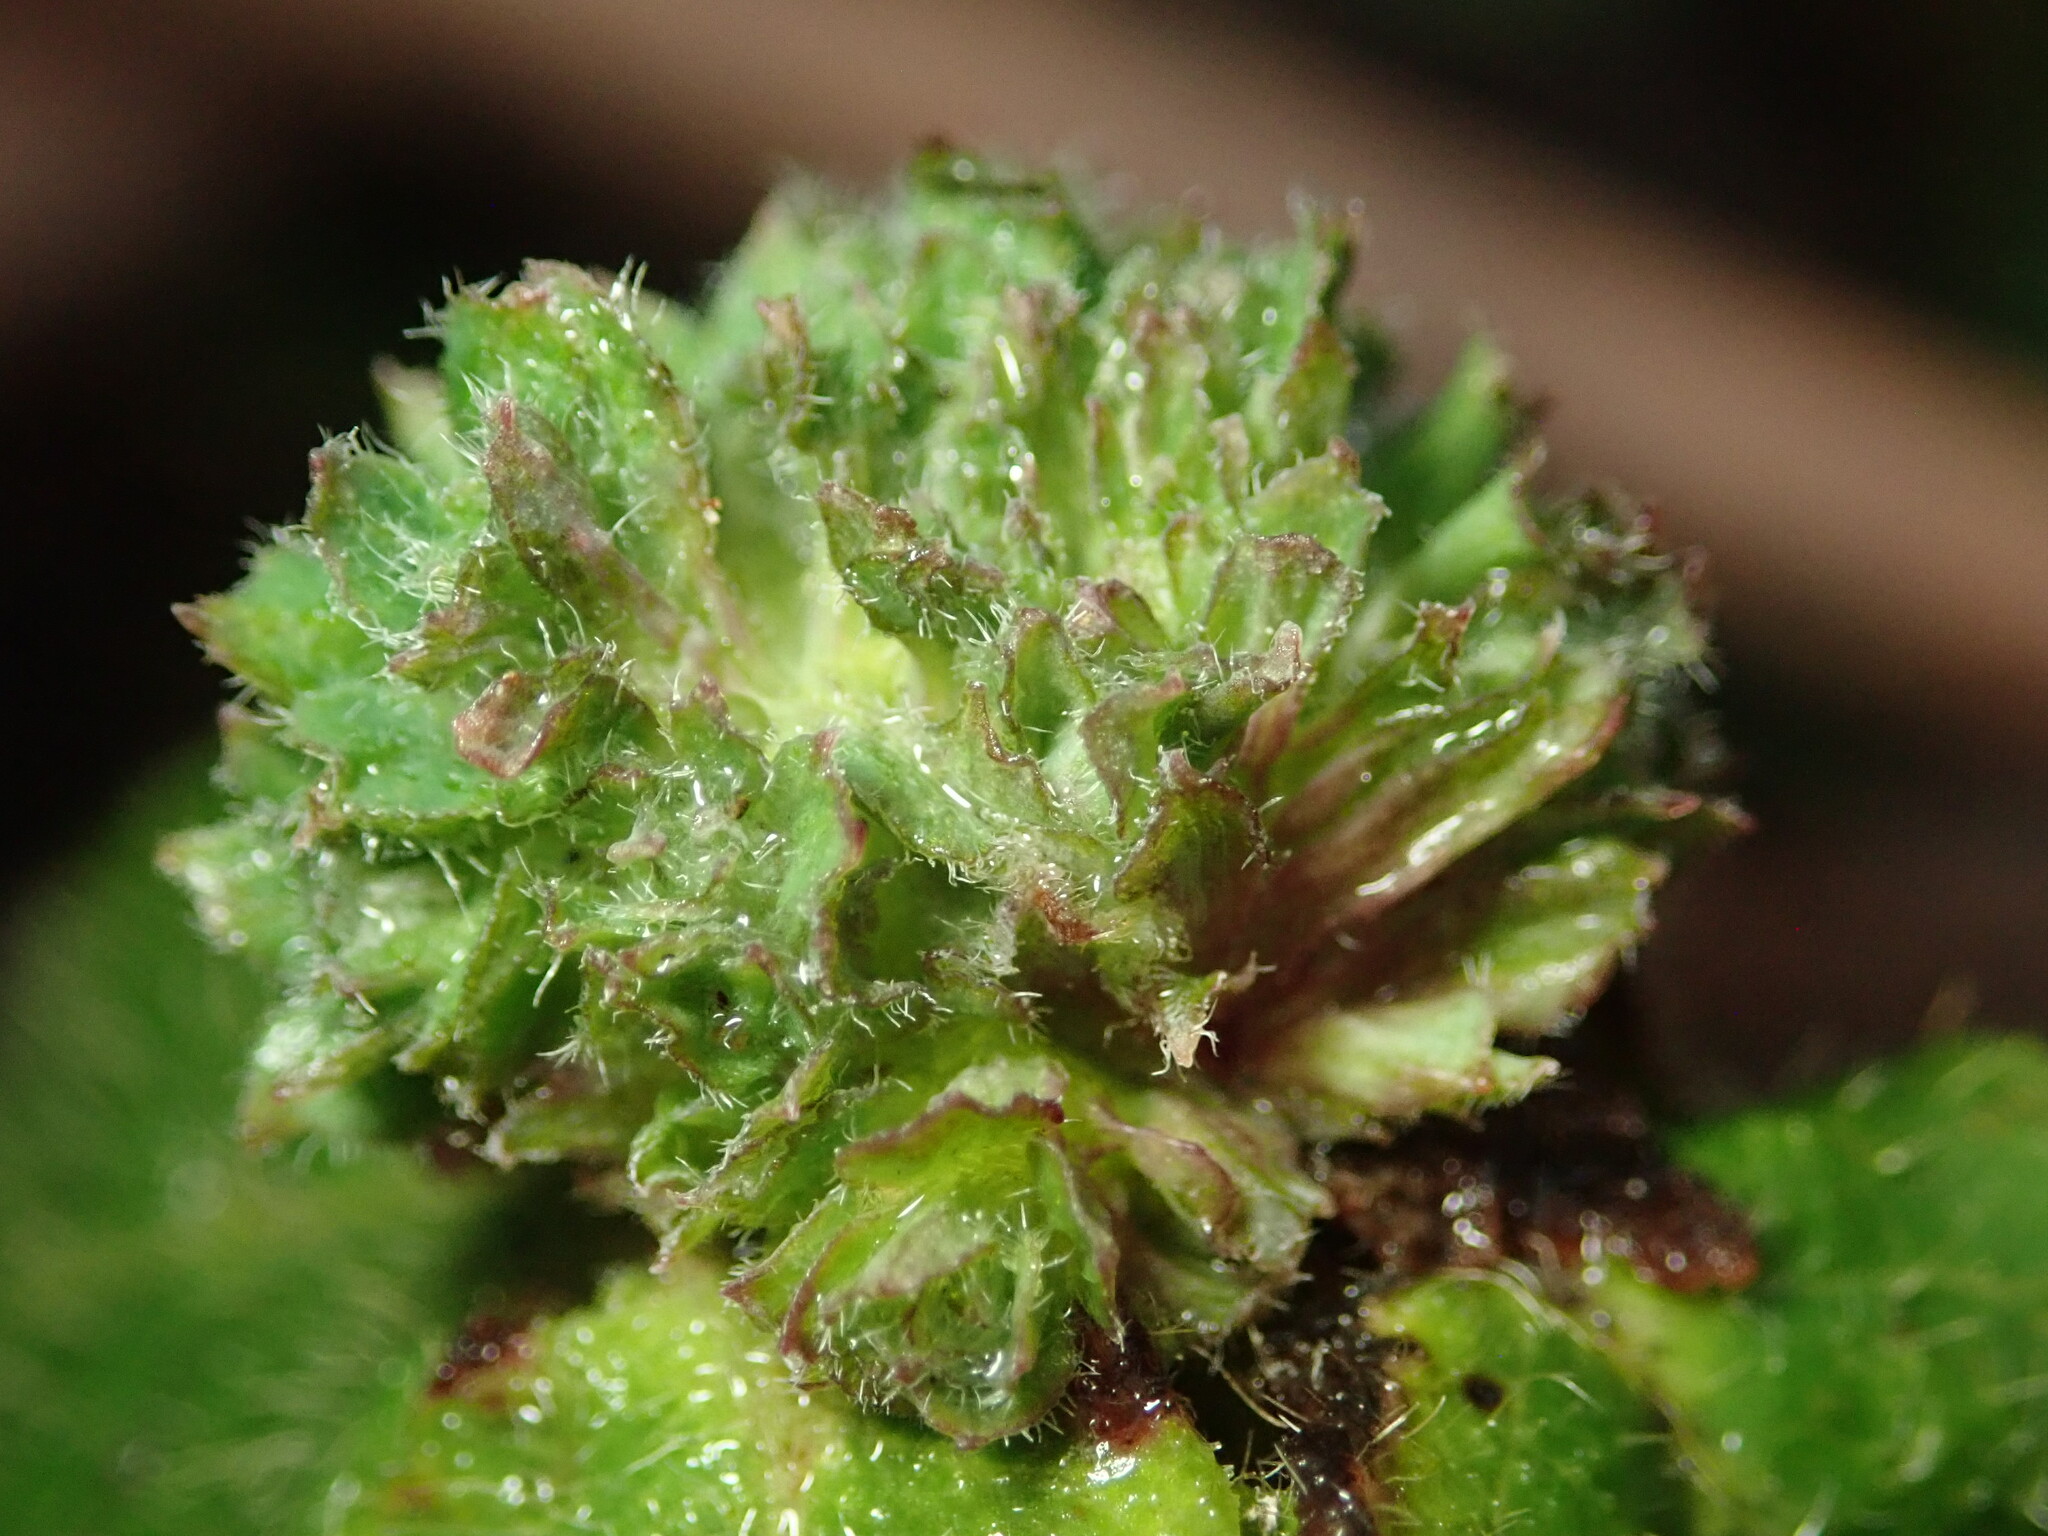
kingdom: Animalia
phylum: Arthropoda
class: Insecta
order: Diptera
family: Cecidomyiidae
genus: Lonicerae
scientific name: Lonicerae russoi
